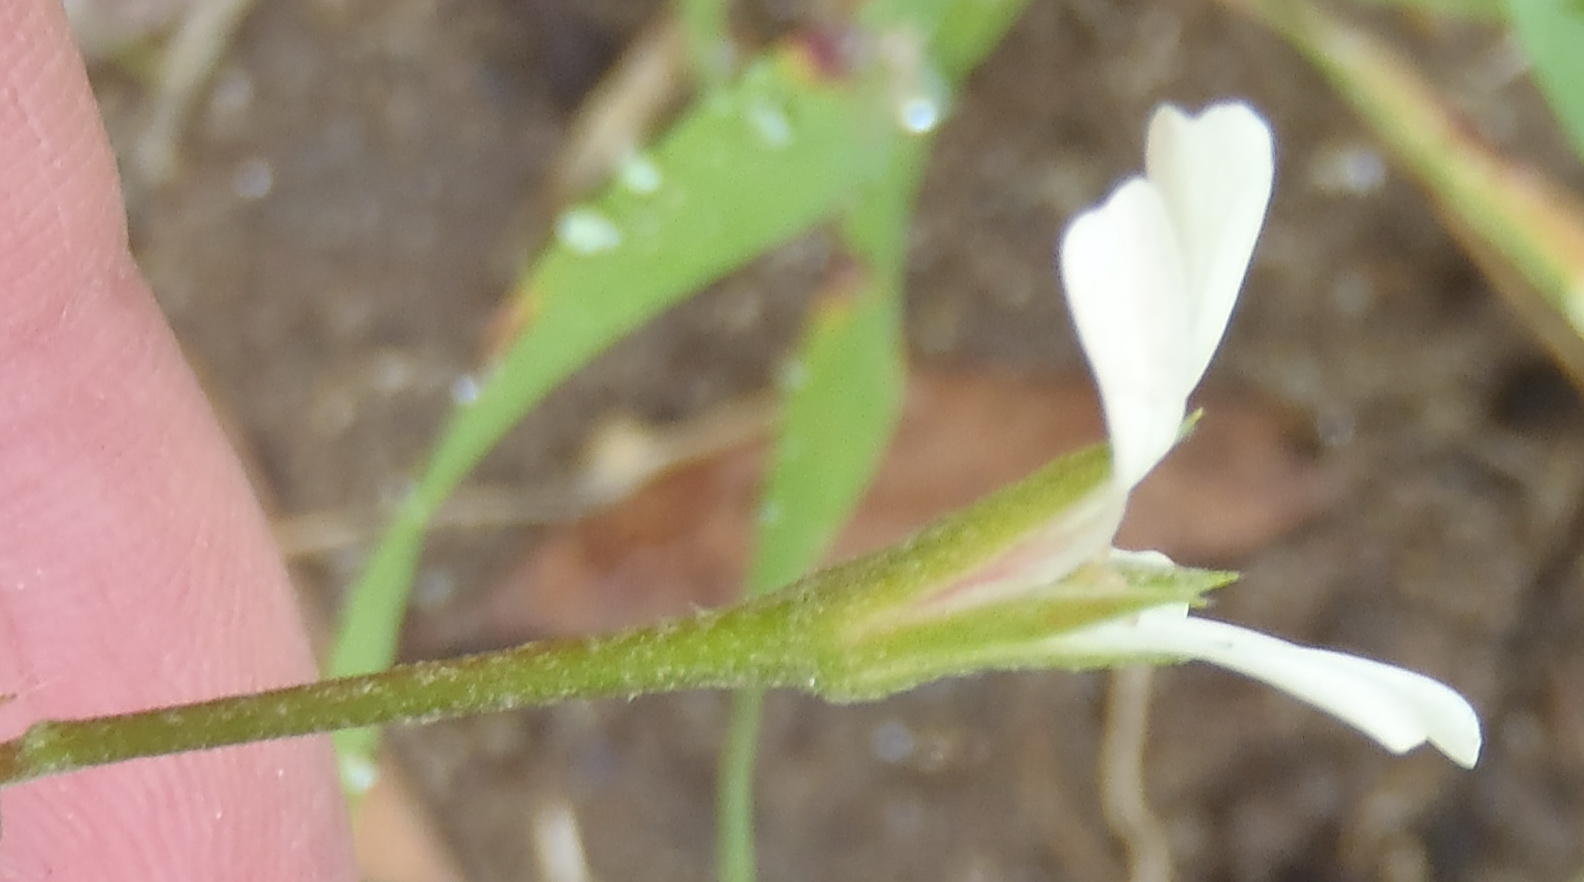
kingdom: Plantae
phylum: Tracheophyta
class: Magnoliopsida
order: Geraniales
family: Geraniaceae
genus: Pelargonium
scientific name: Pelargonium alchemilloides
